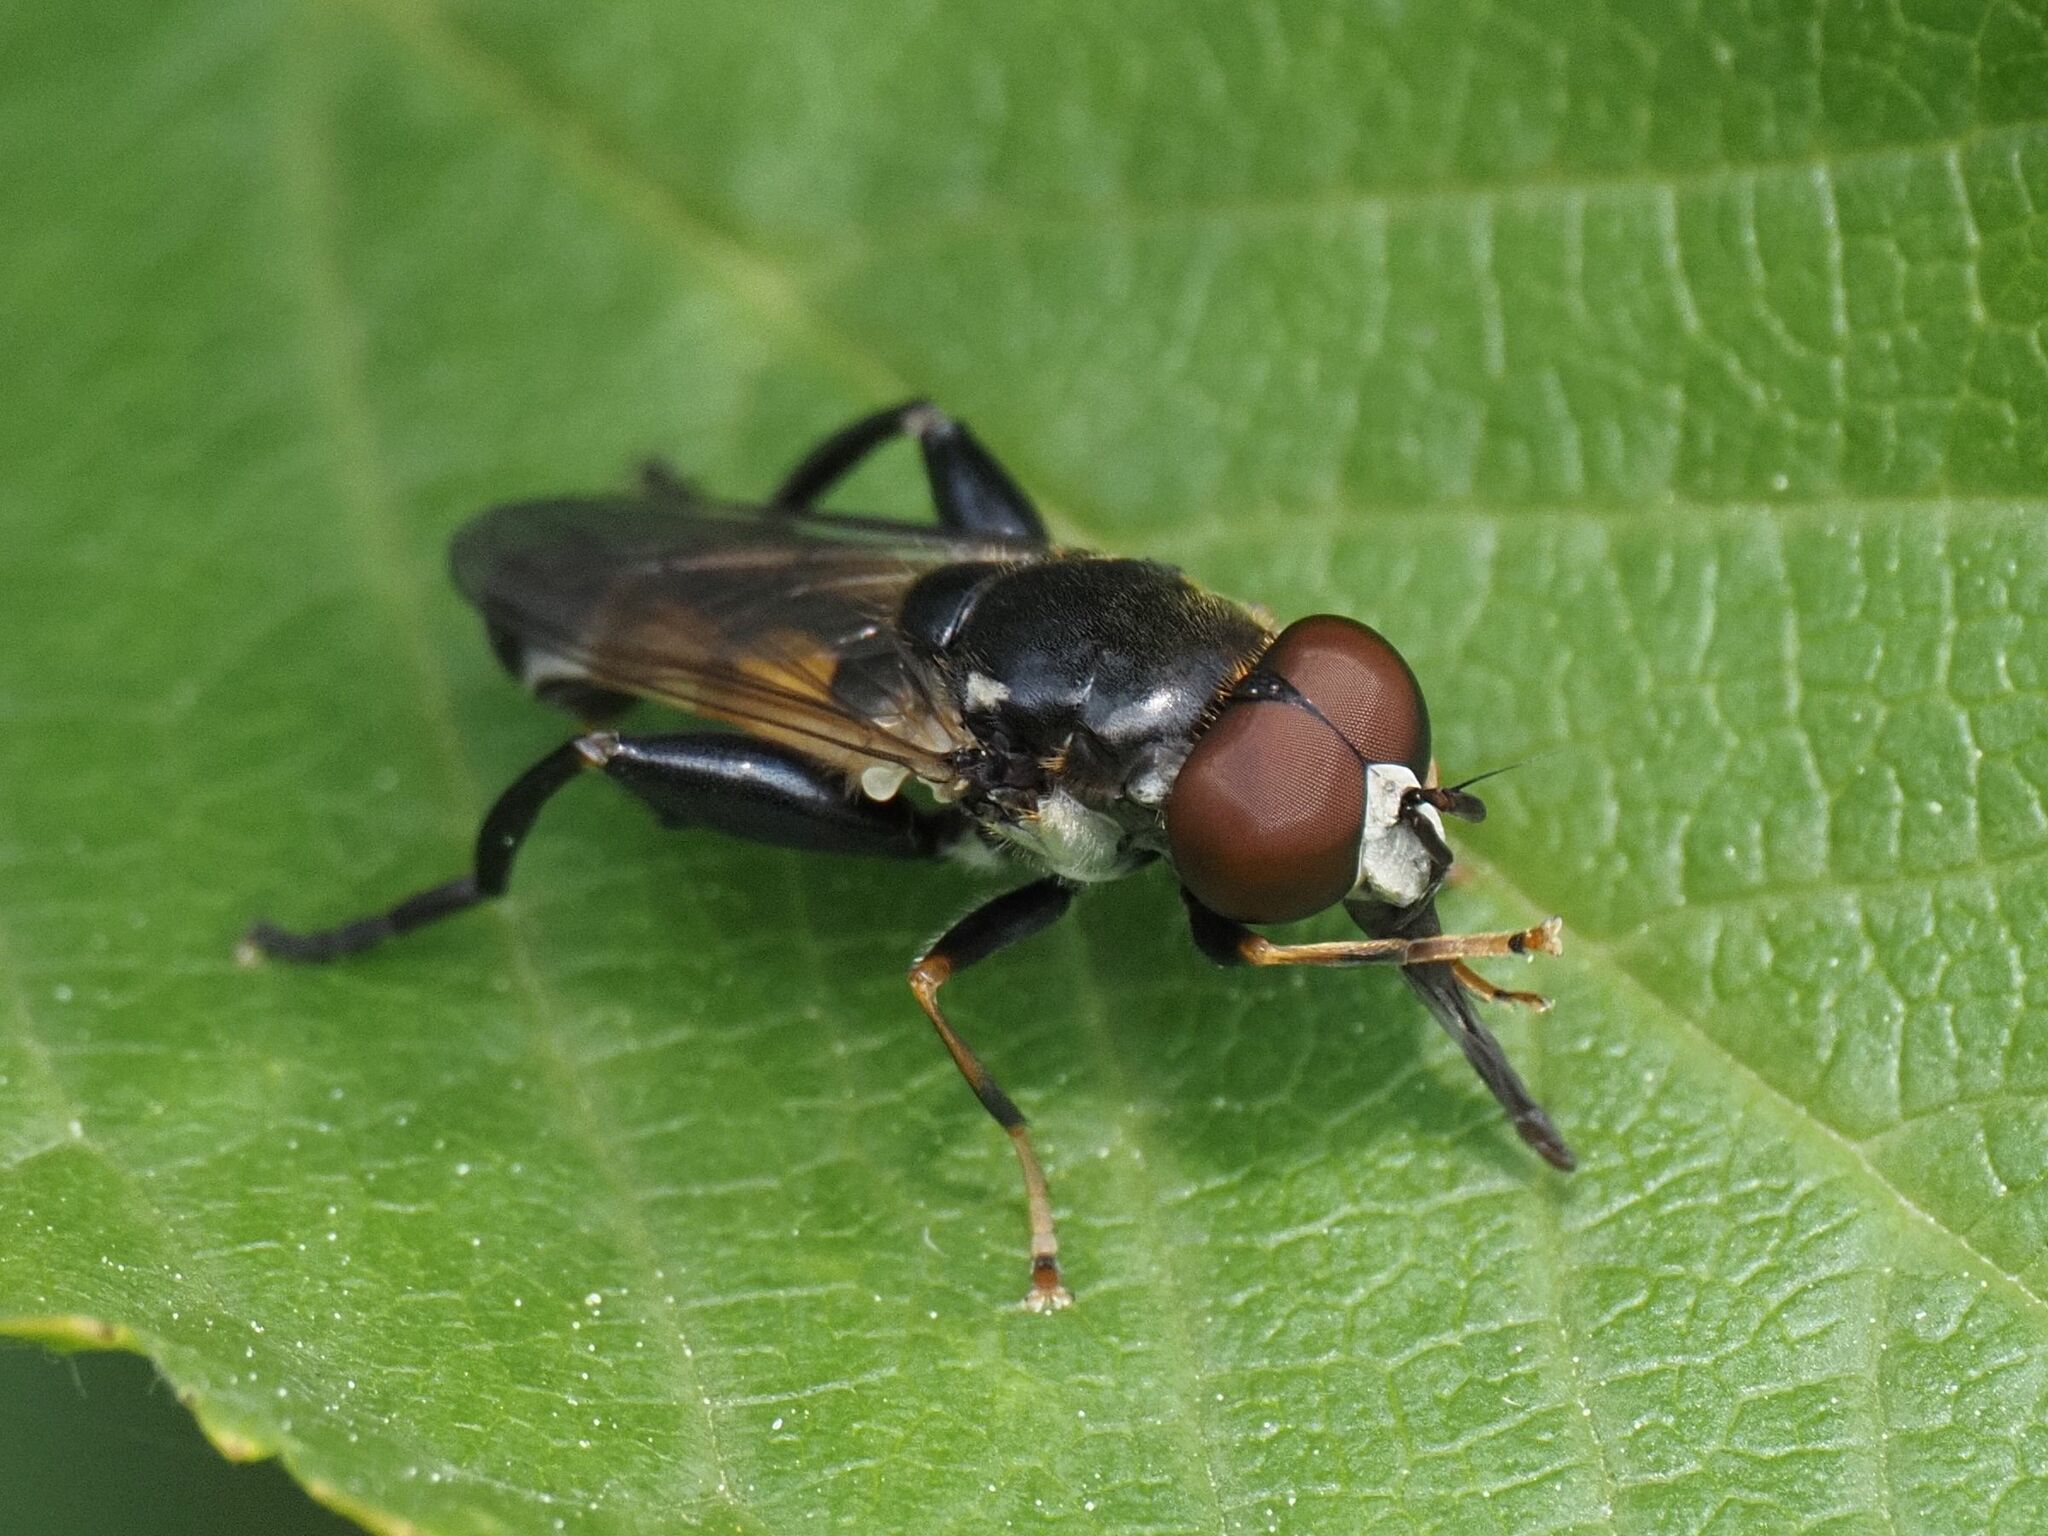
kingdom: Animalia
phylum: Arthropoda
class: Insecta
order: Diptera
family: Syrphidae
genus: Tropidia
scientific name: Tropidia scita
